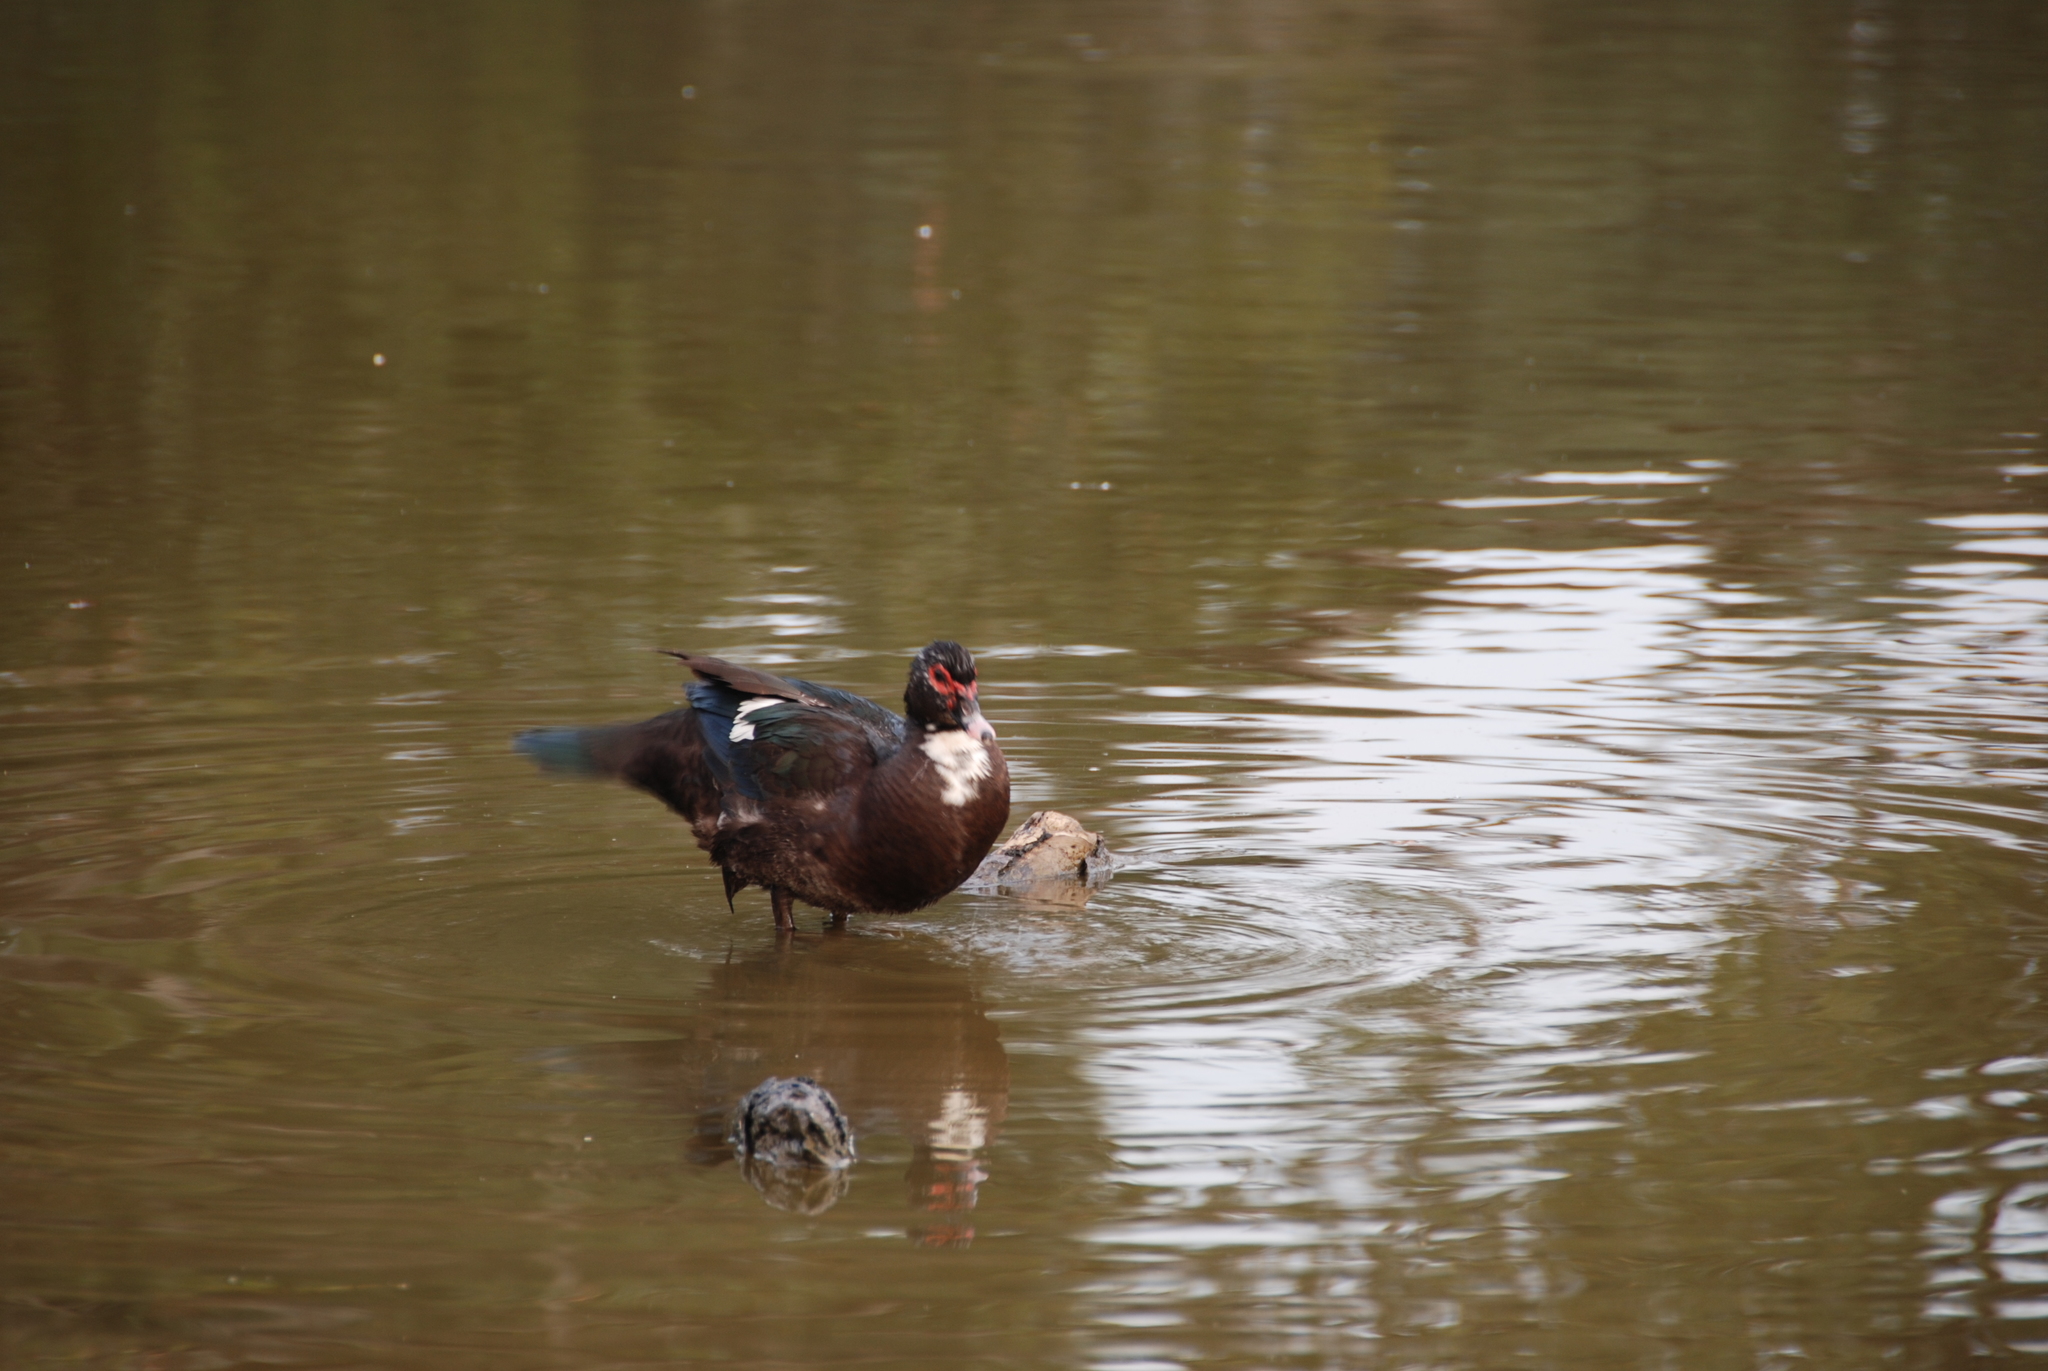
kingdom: Animalia
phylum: Chordata
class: Aves
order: Anseriformes
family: Anatidae
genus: Cairina
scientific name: Cairina moschata
